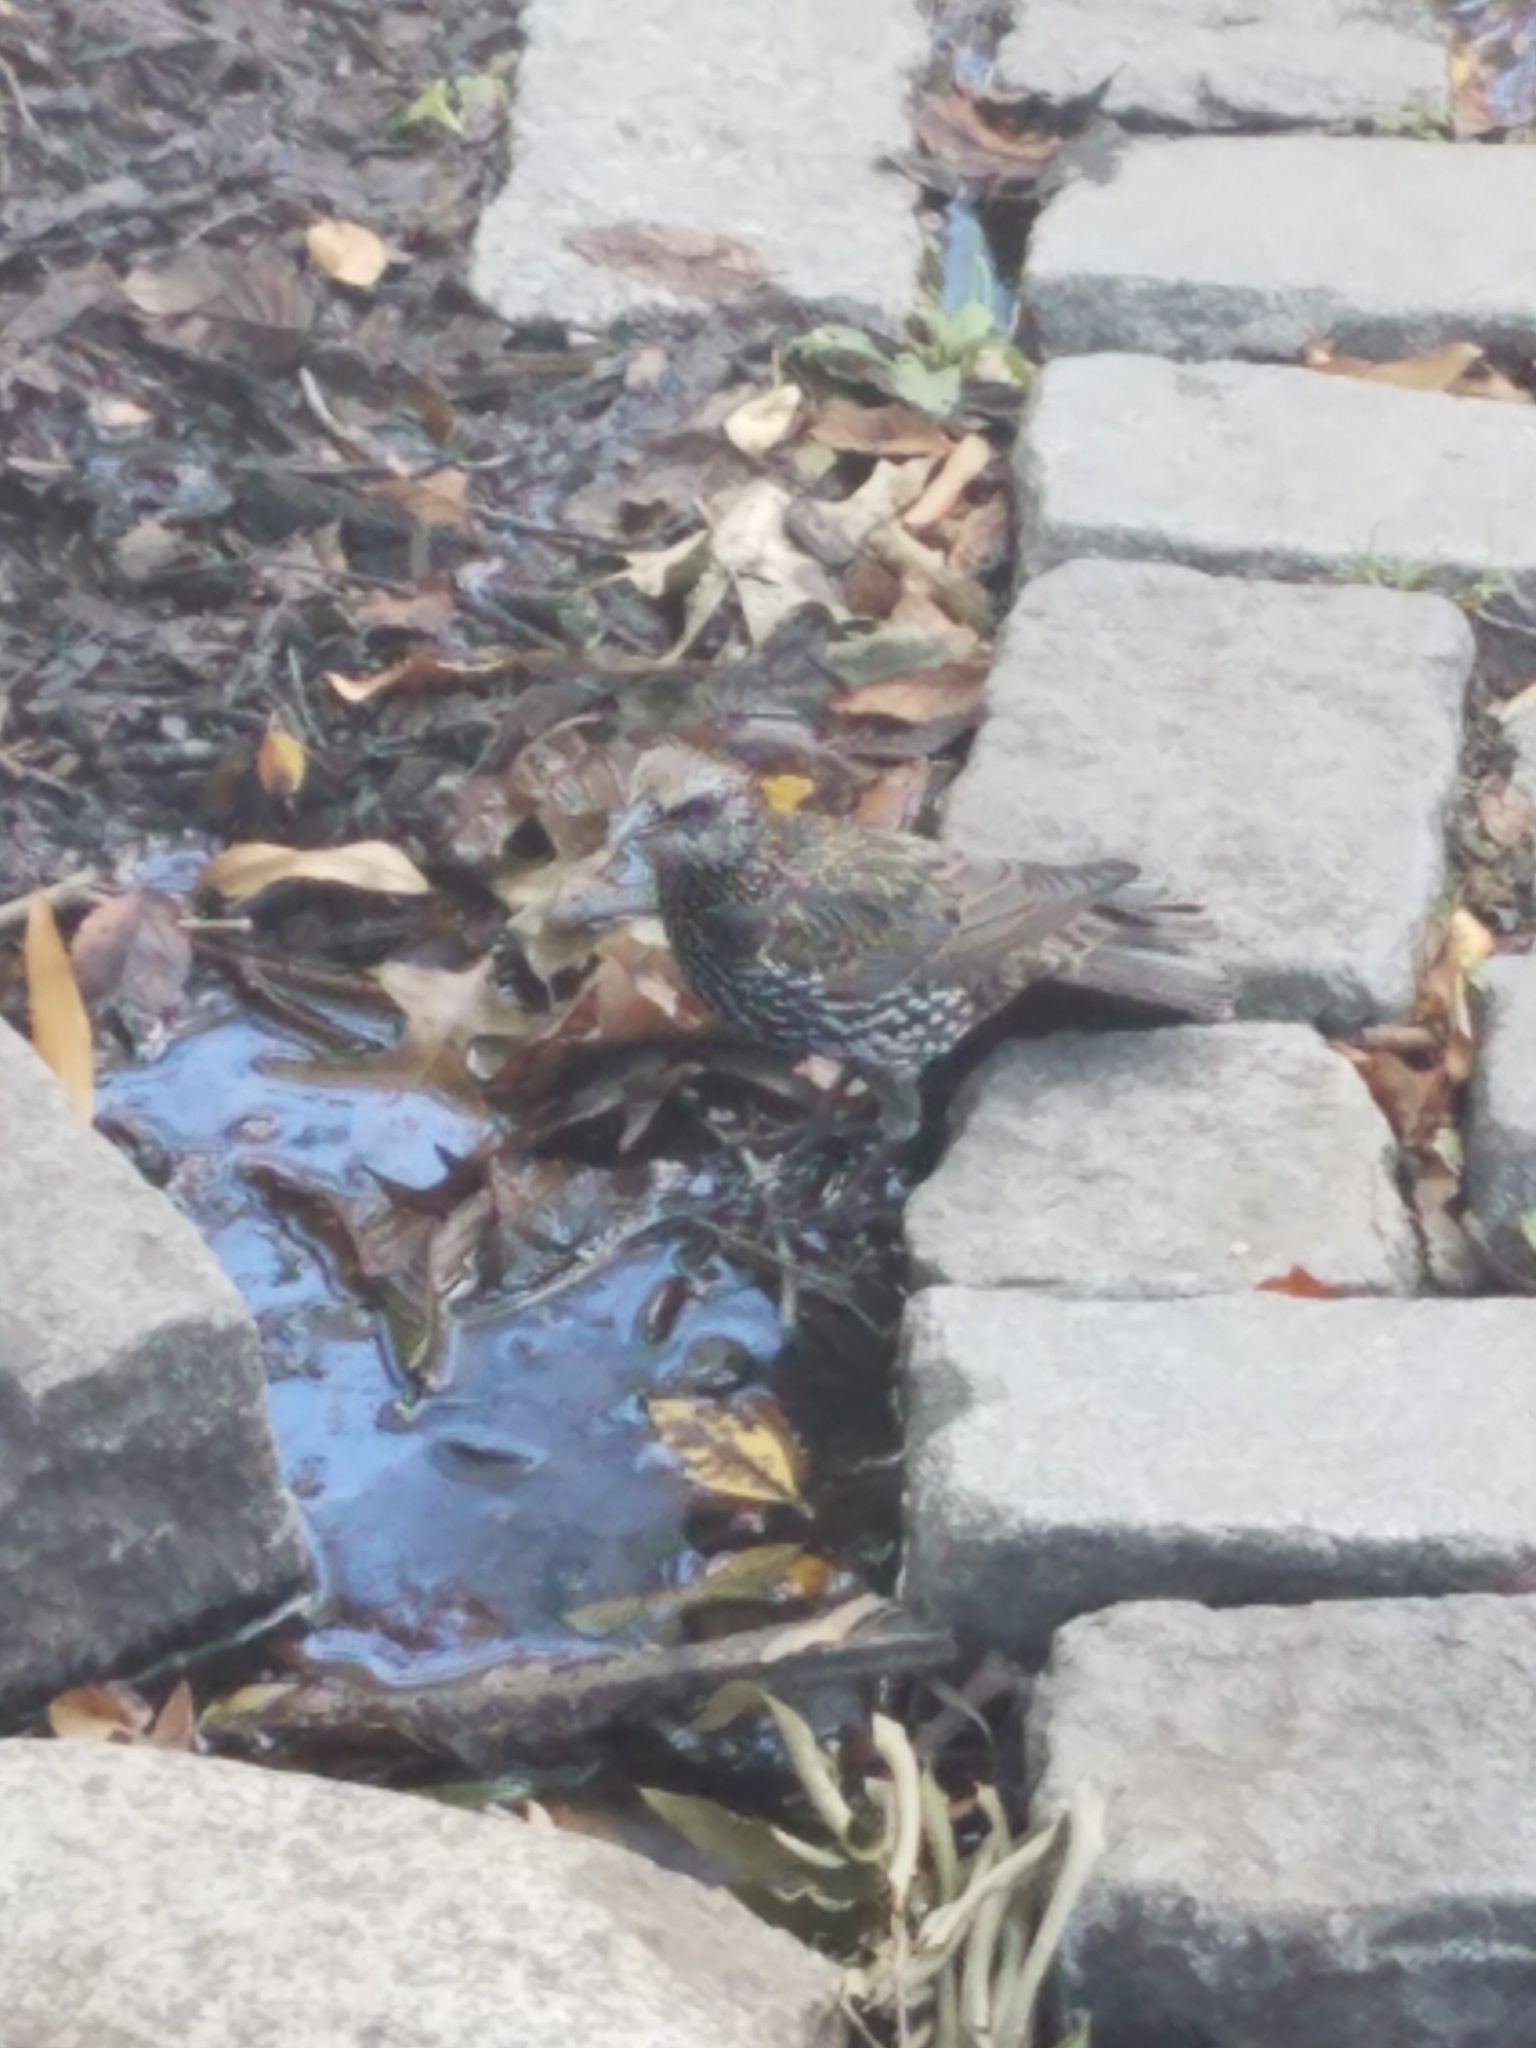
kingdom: Animalia
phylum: Chordata
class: Aves
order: Passeriformes
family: Sturnidae
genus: Sturnus
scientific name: Sturnus vulgaris
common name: Common starling
